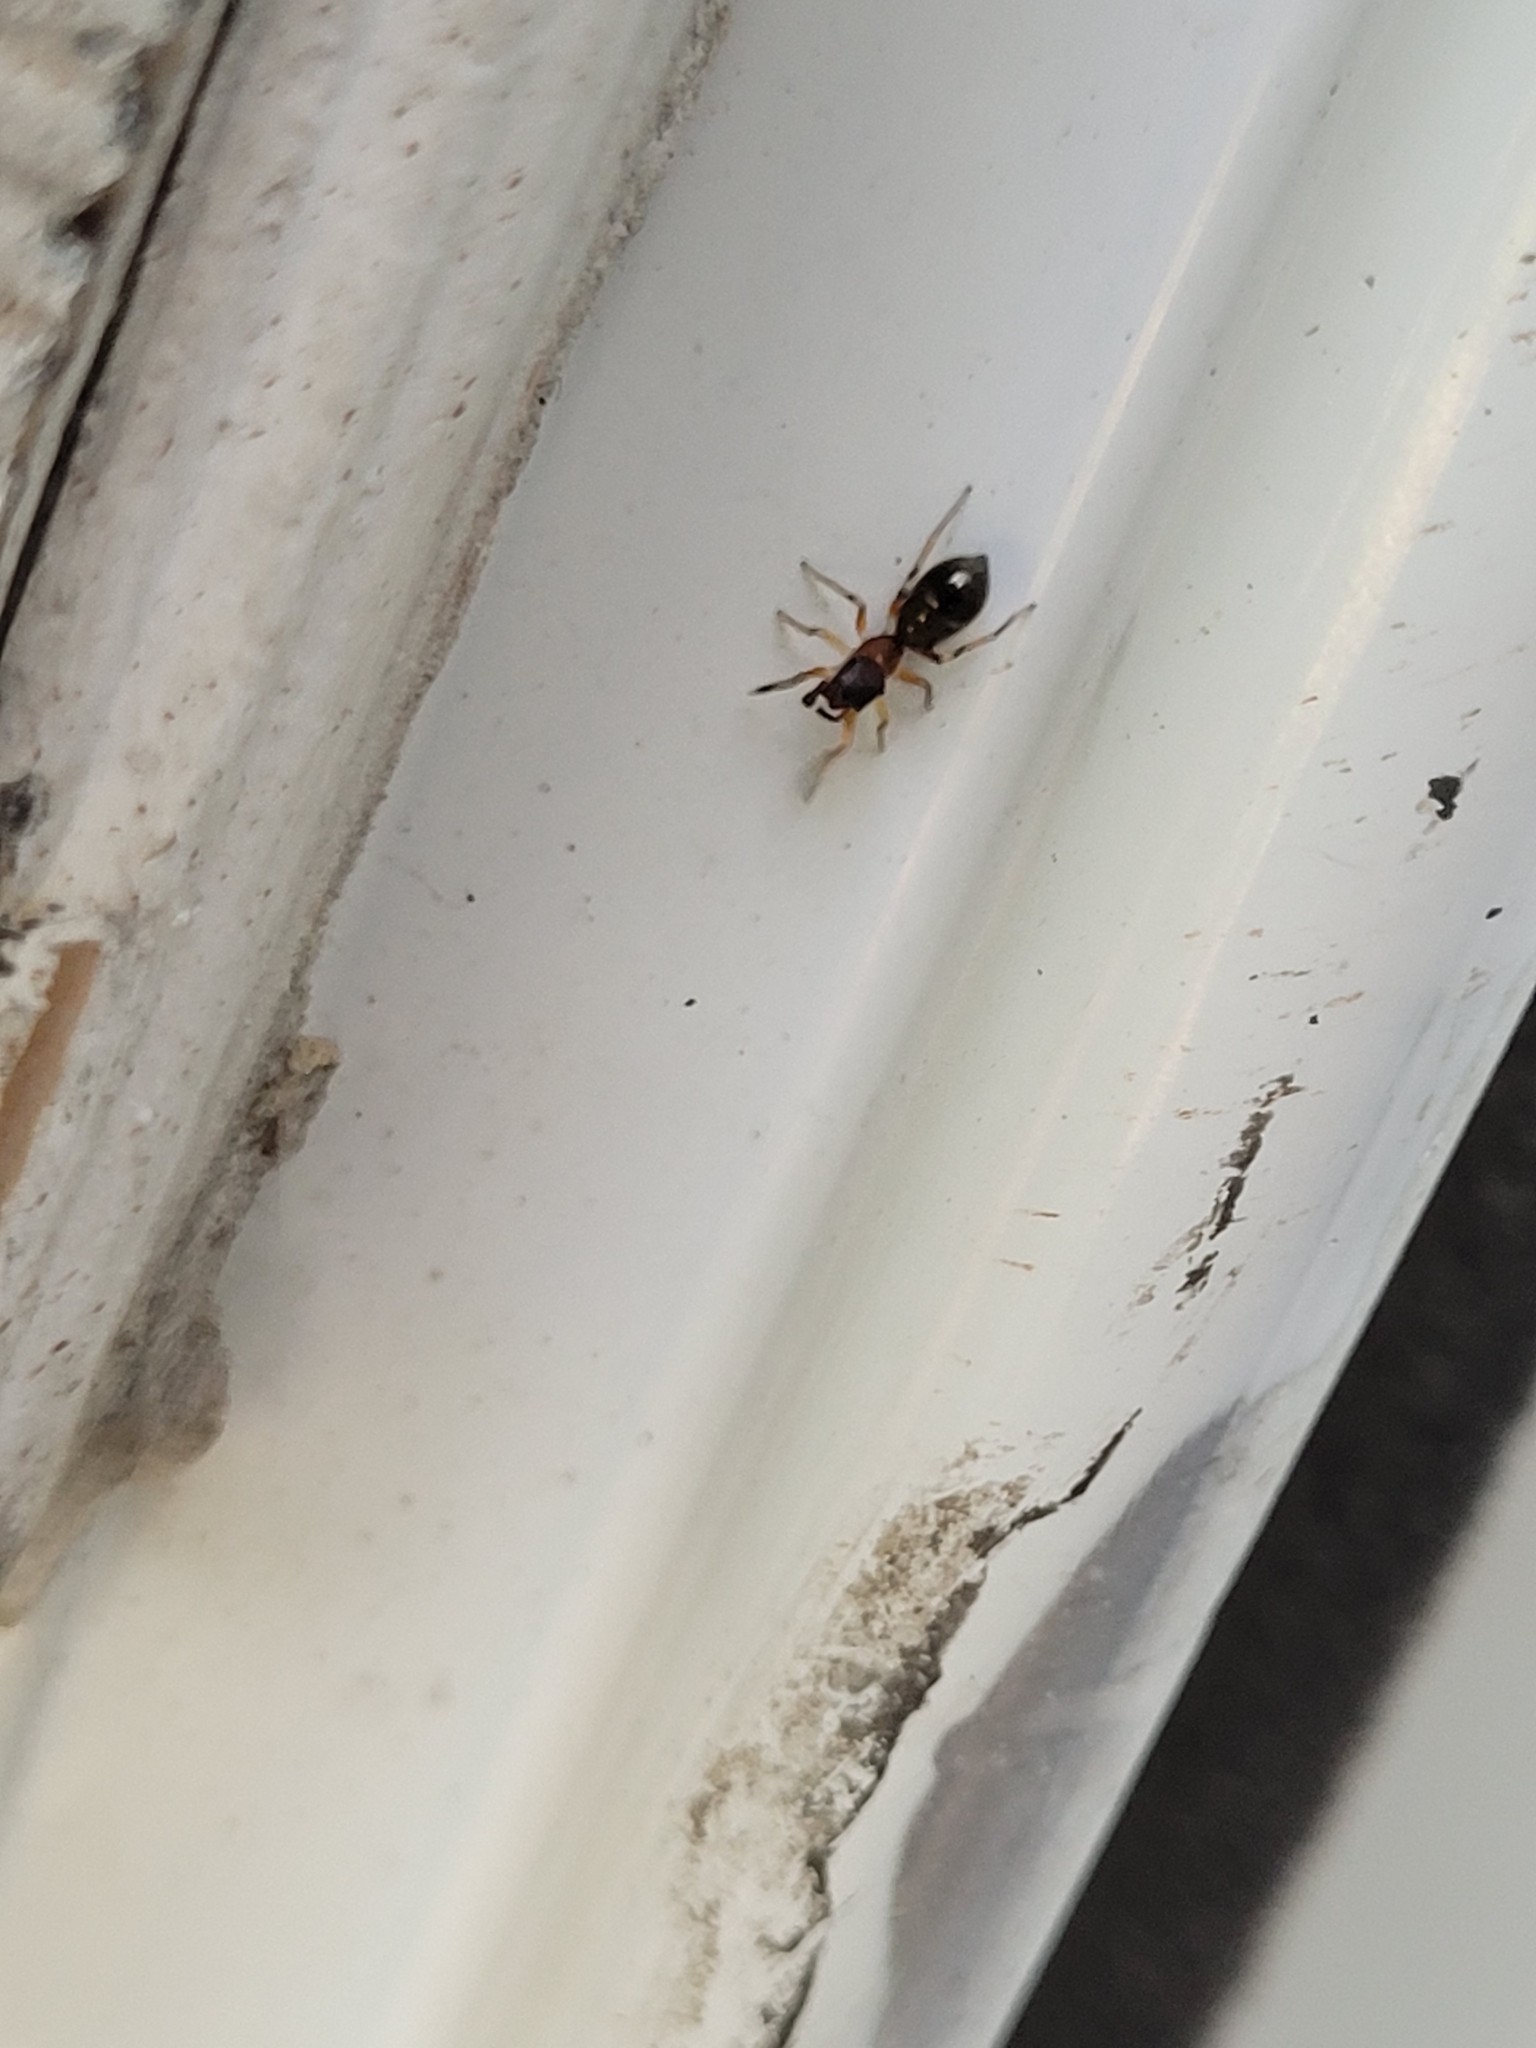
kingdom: Animalia
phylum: Arthropoda
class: Arachnida
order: Araneae
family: Salticidae
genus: Myrmarachne
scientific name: Myrmarachne formicaria
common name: Ant mimic jumping spider
